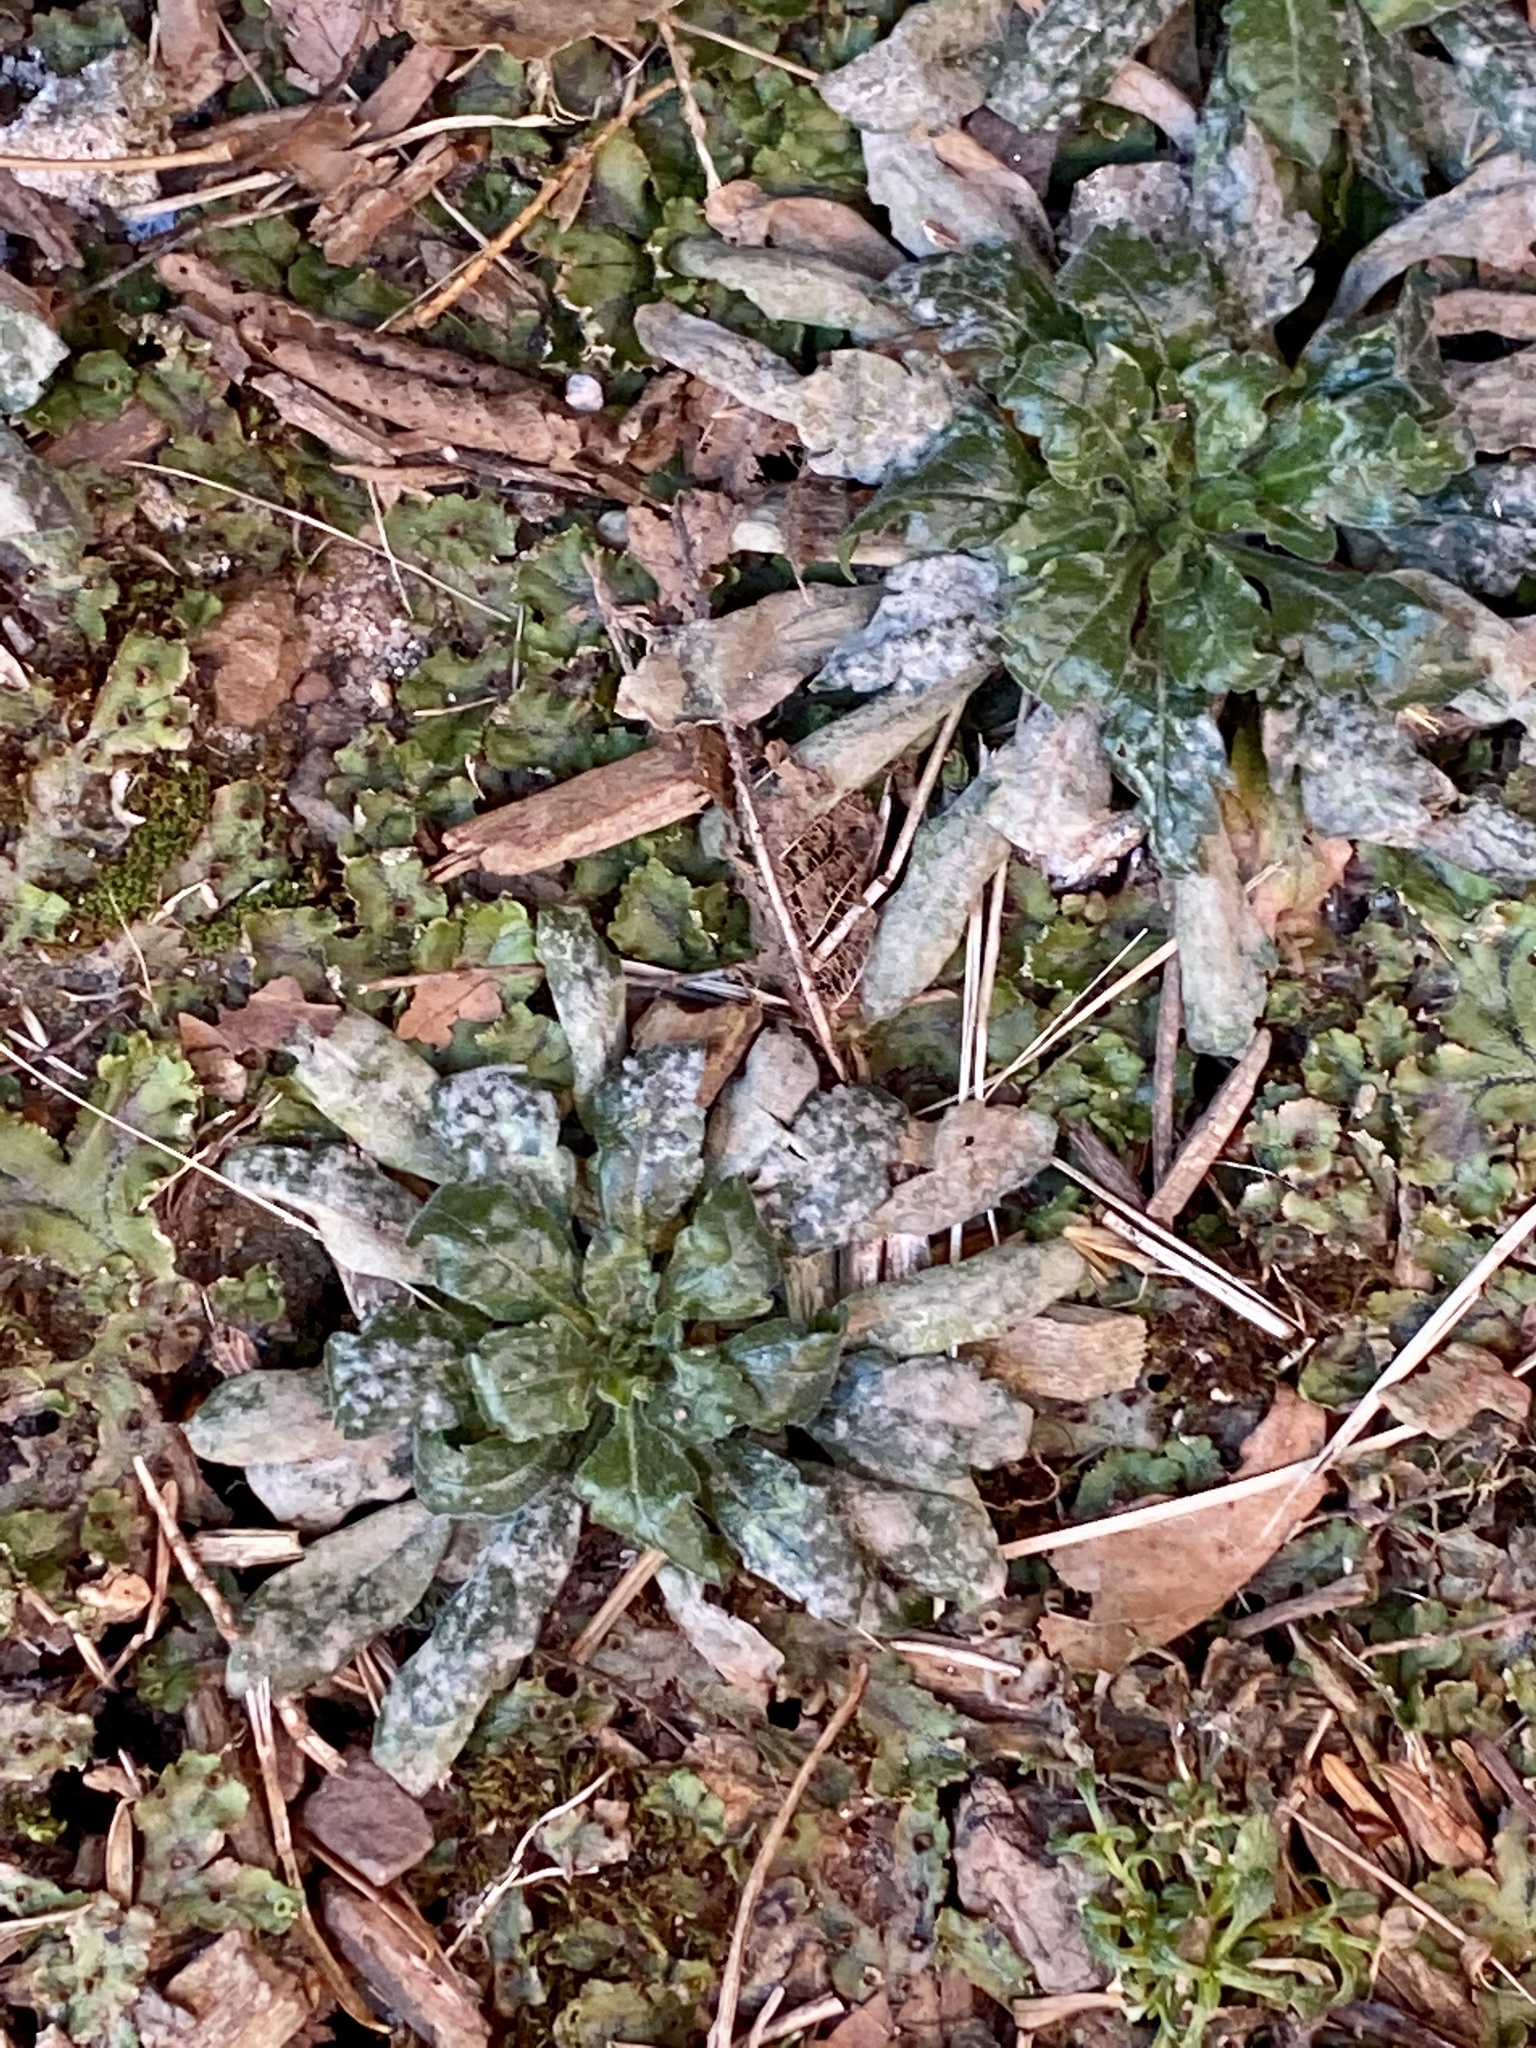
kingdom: Plantae
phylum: Tracheophyta
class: Magnoliopsida
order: Asterales
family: Asteraceae
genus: Erigeron
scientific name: Erigeron canadensis
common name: Canadian fleabane
